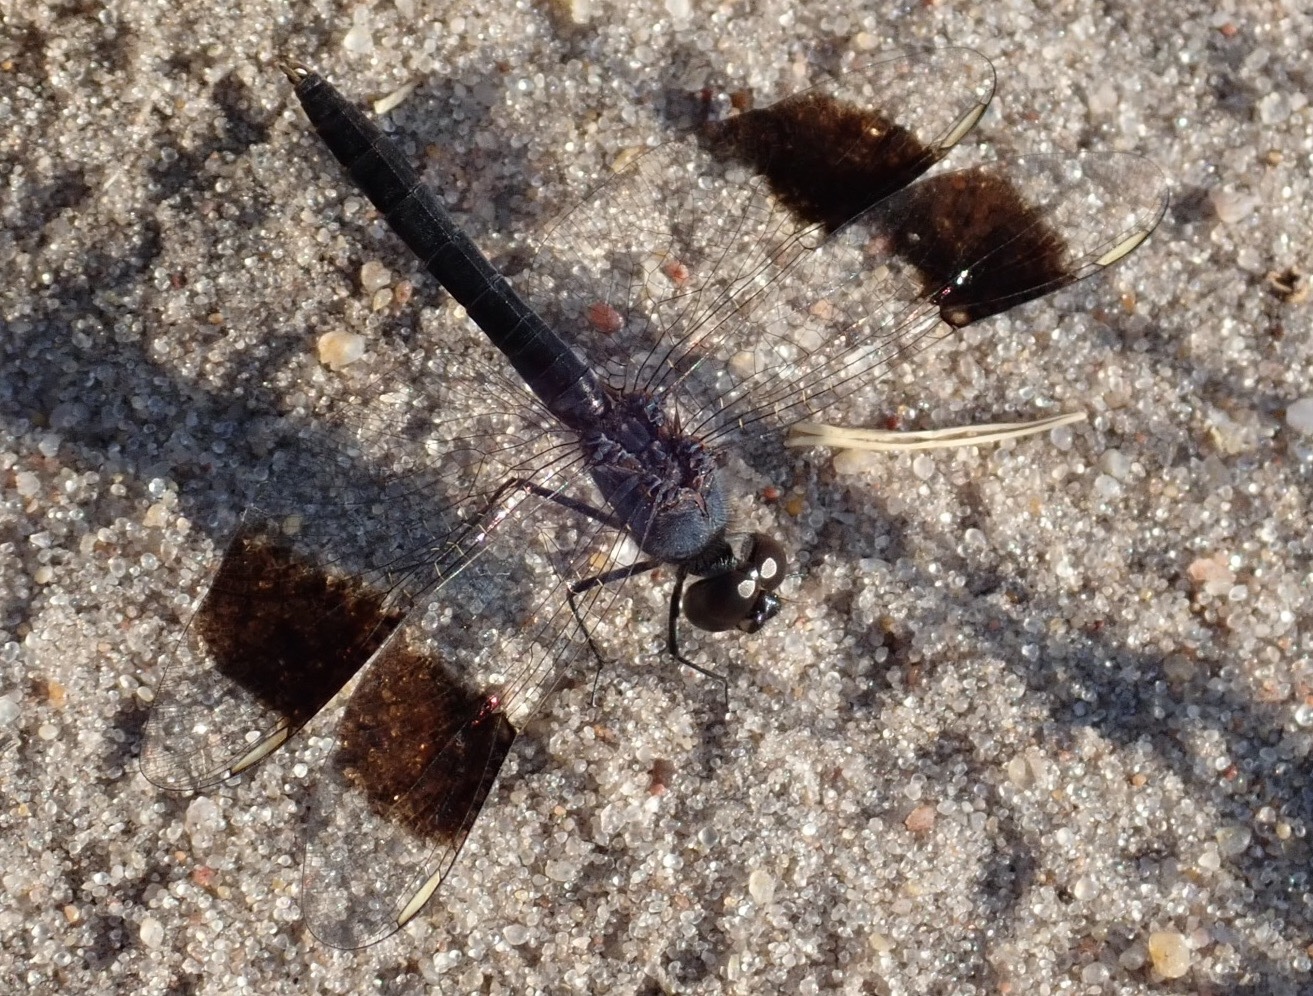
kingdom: Animalia
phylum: Arthropoda
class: Insecta
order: Odonata
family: Libellulidae
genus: Brachythemis
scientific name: Brachythemis leucosticta
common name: Banded groundling
